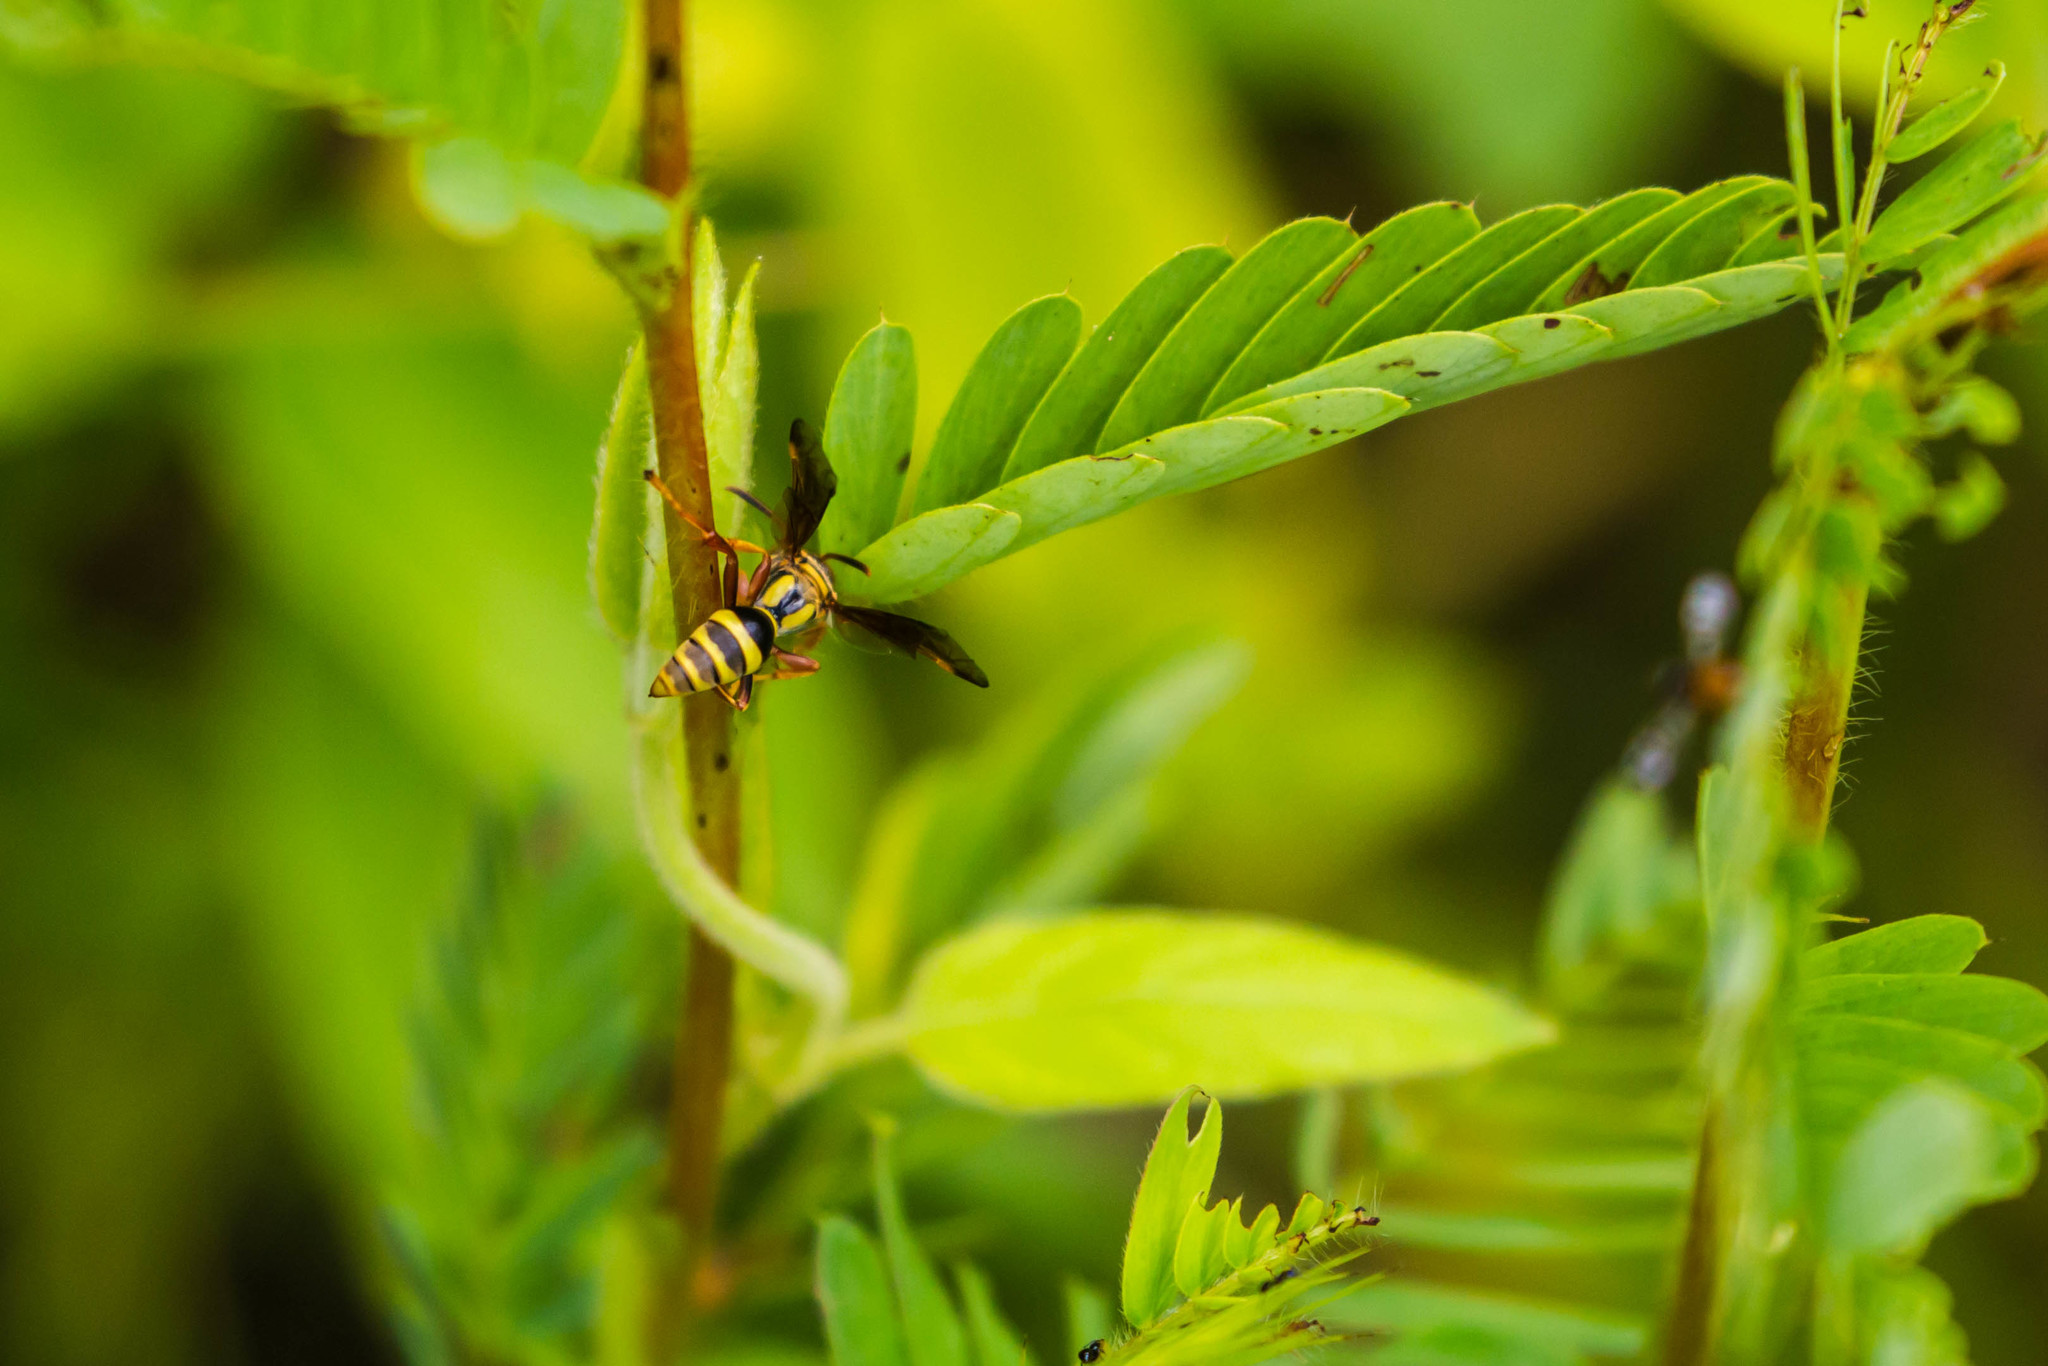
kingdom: Animalia
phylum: Arthropoda
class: Insecta
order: Hymenoptera
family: Crabronidae
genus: Saygorytes
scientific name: Saygorytes phaleratus
